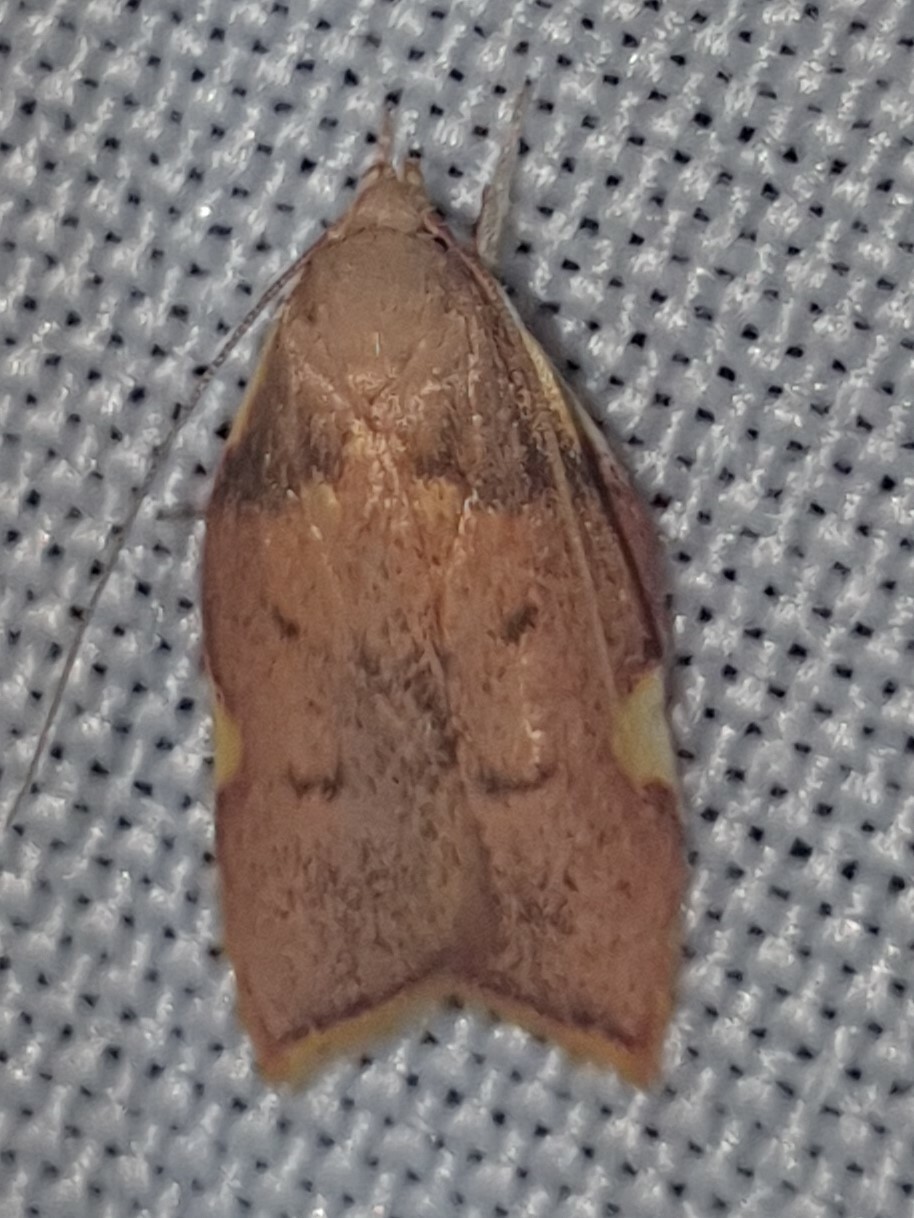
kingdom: Animalia
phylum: Arthropoda
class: Insecta
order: Lepidoptera
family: Peleopodidae
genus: Carcina
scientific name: Carcina quercana
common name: Moth
